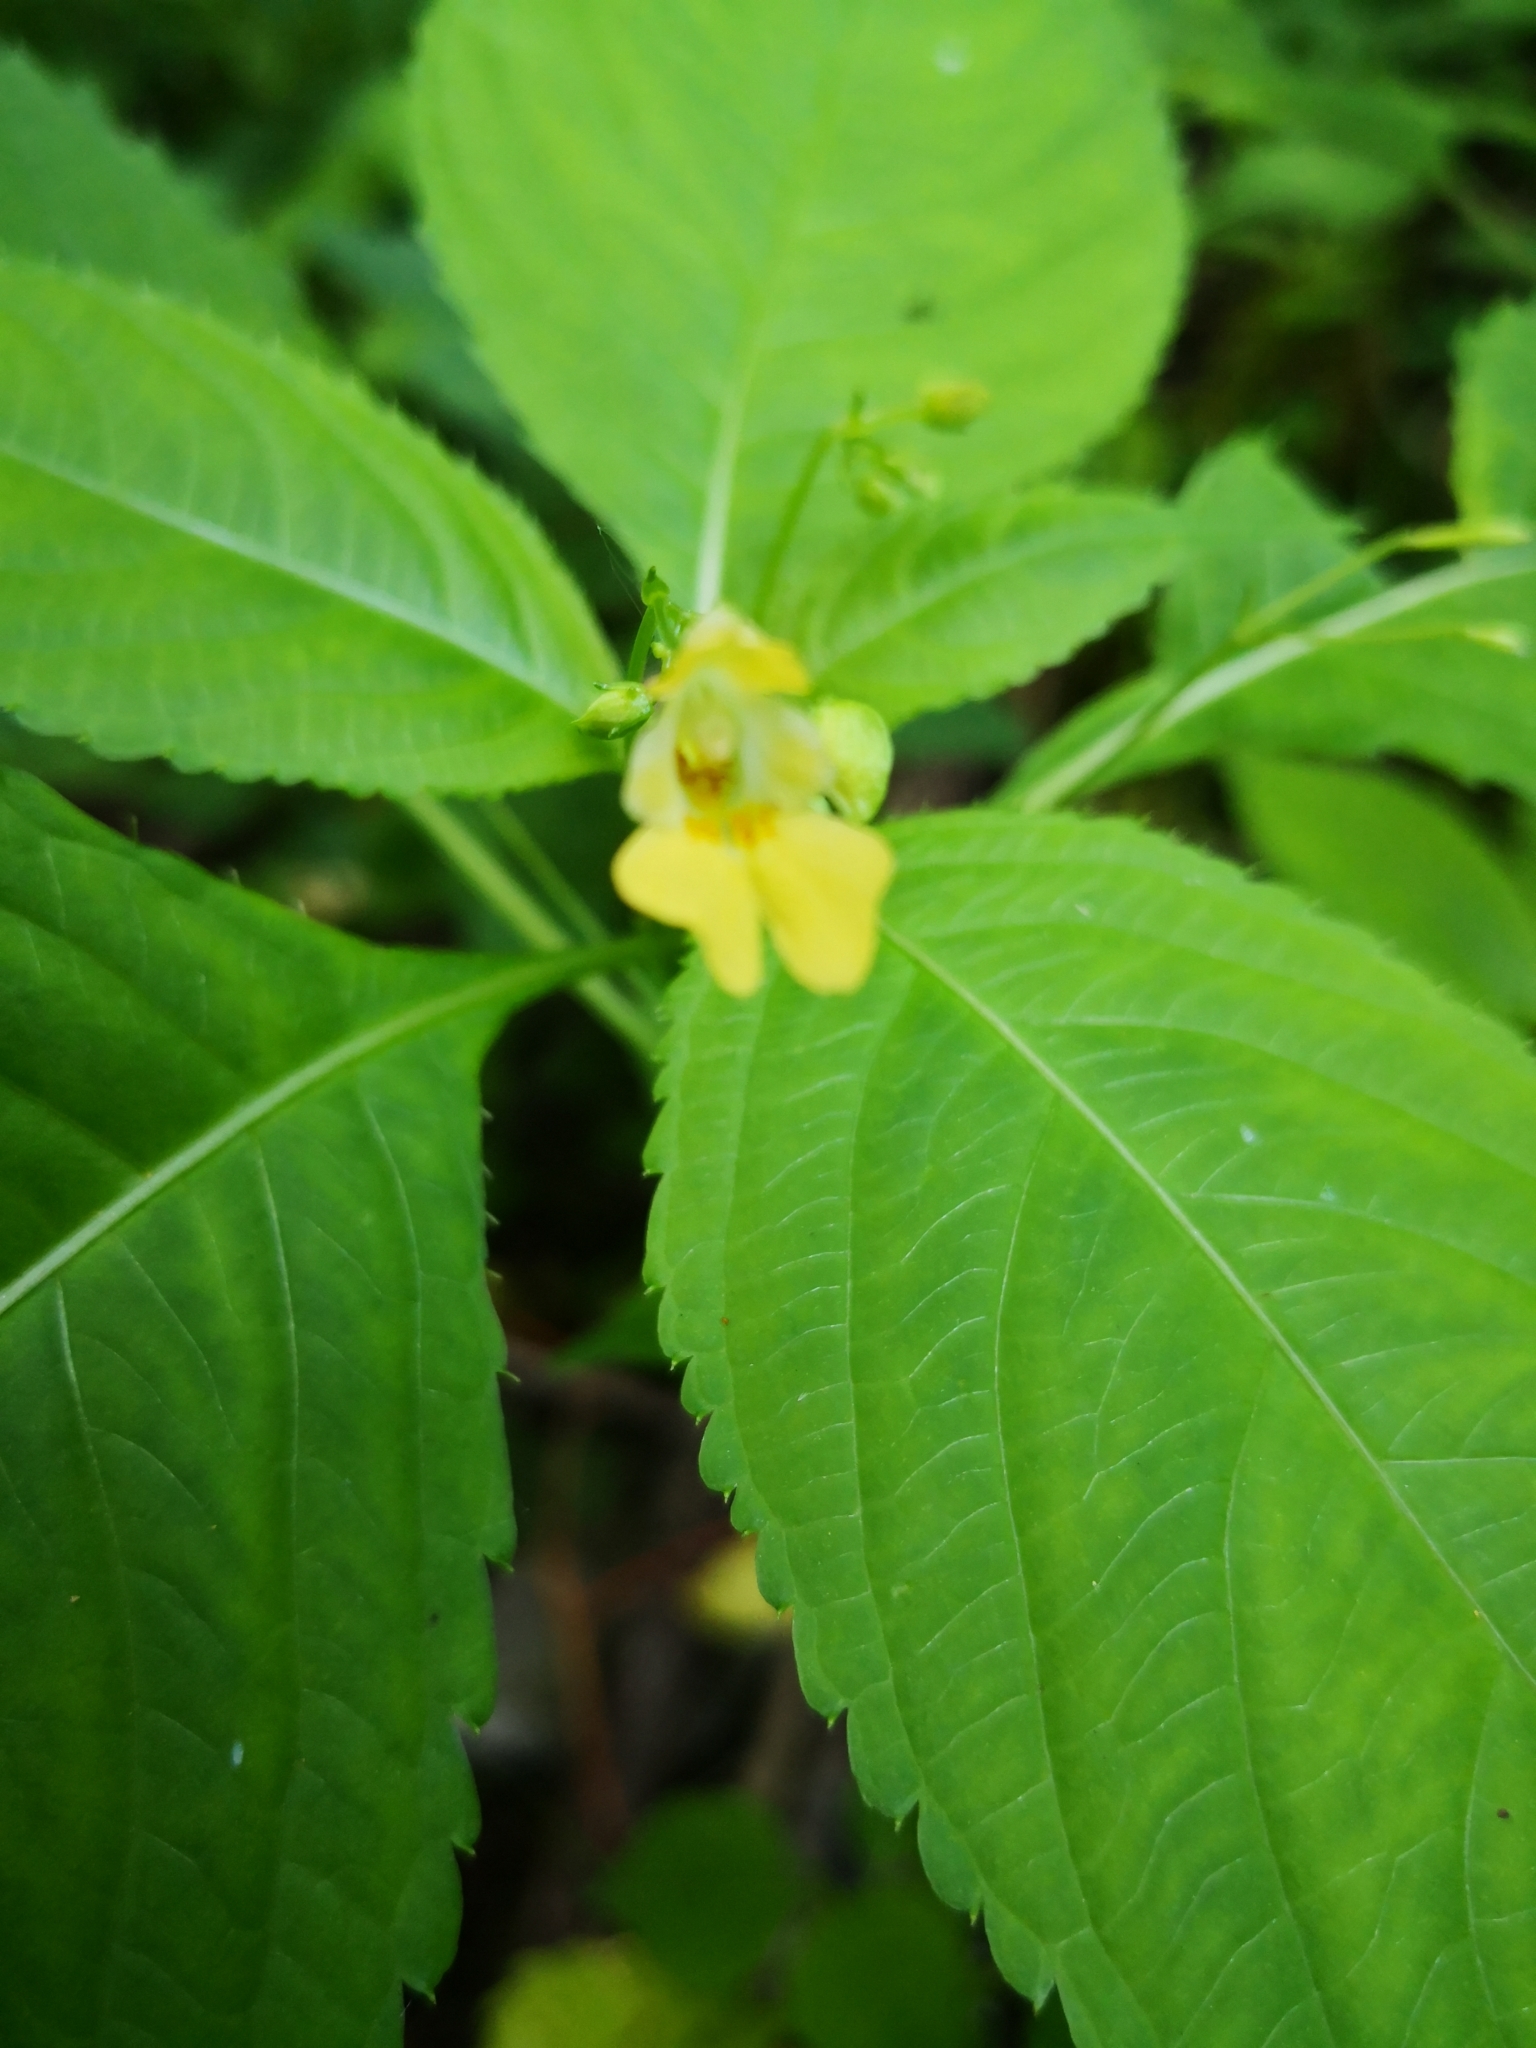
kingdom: Plantae
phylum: Tracheophyta
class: Magnoliopsida
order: Ericales
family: Balsaminaceae
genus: Impatiens
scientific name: Impatiens parviflora
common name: Small balsam
